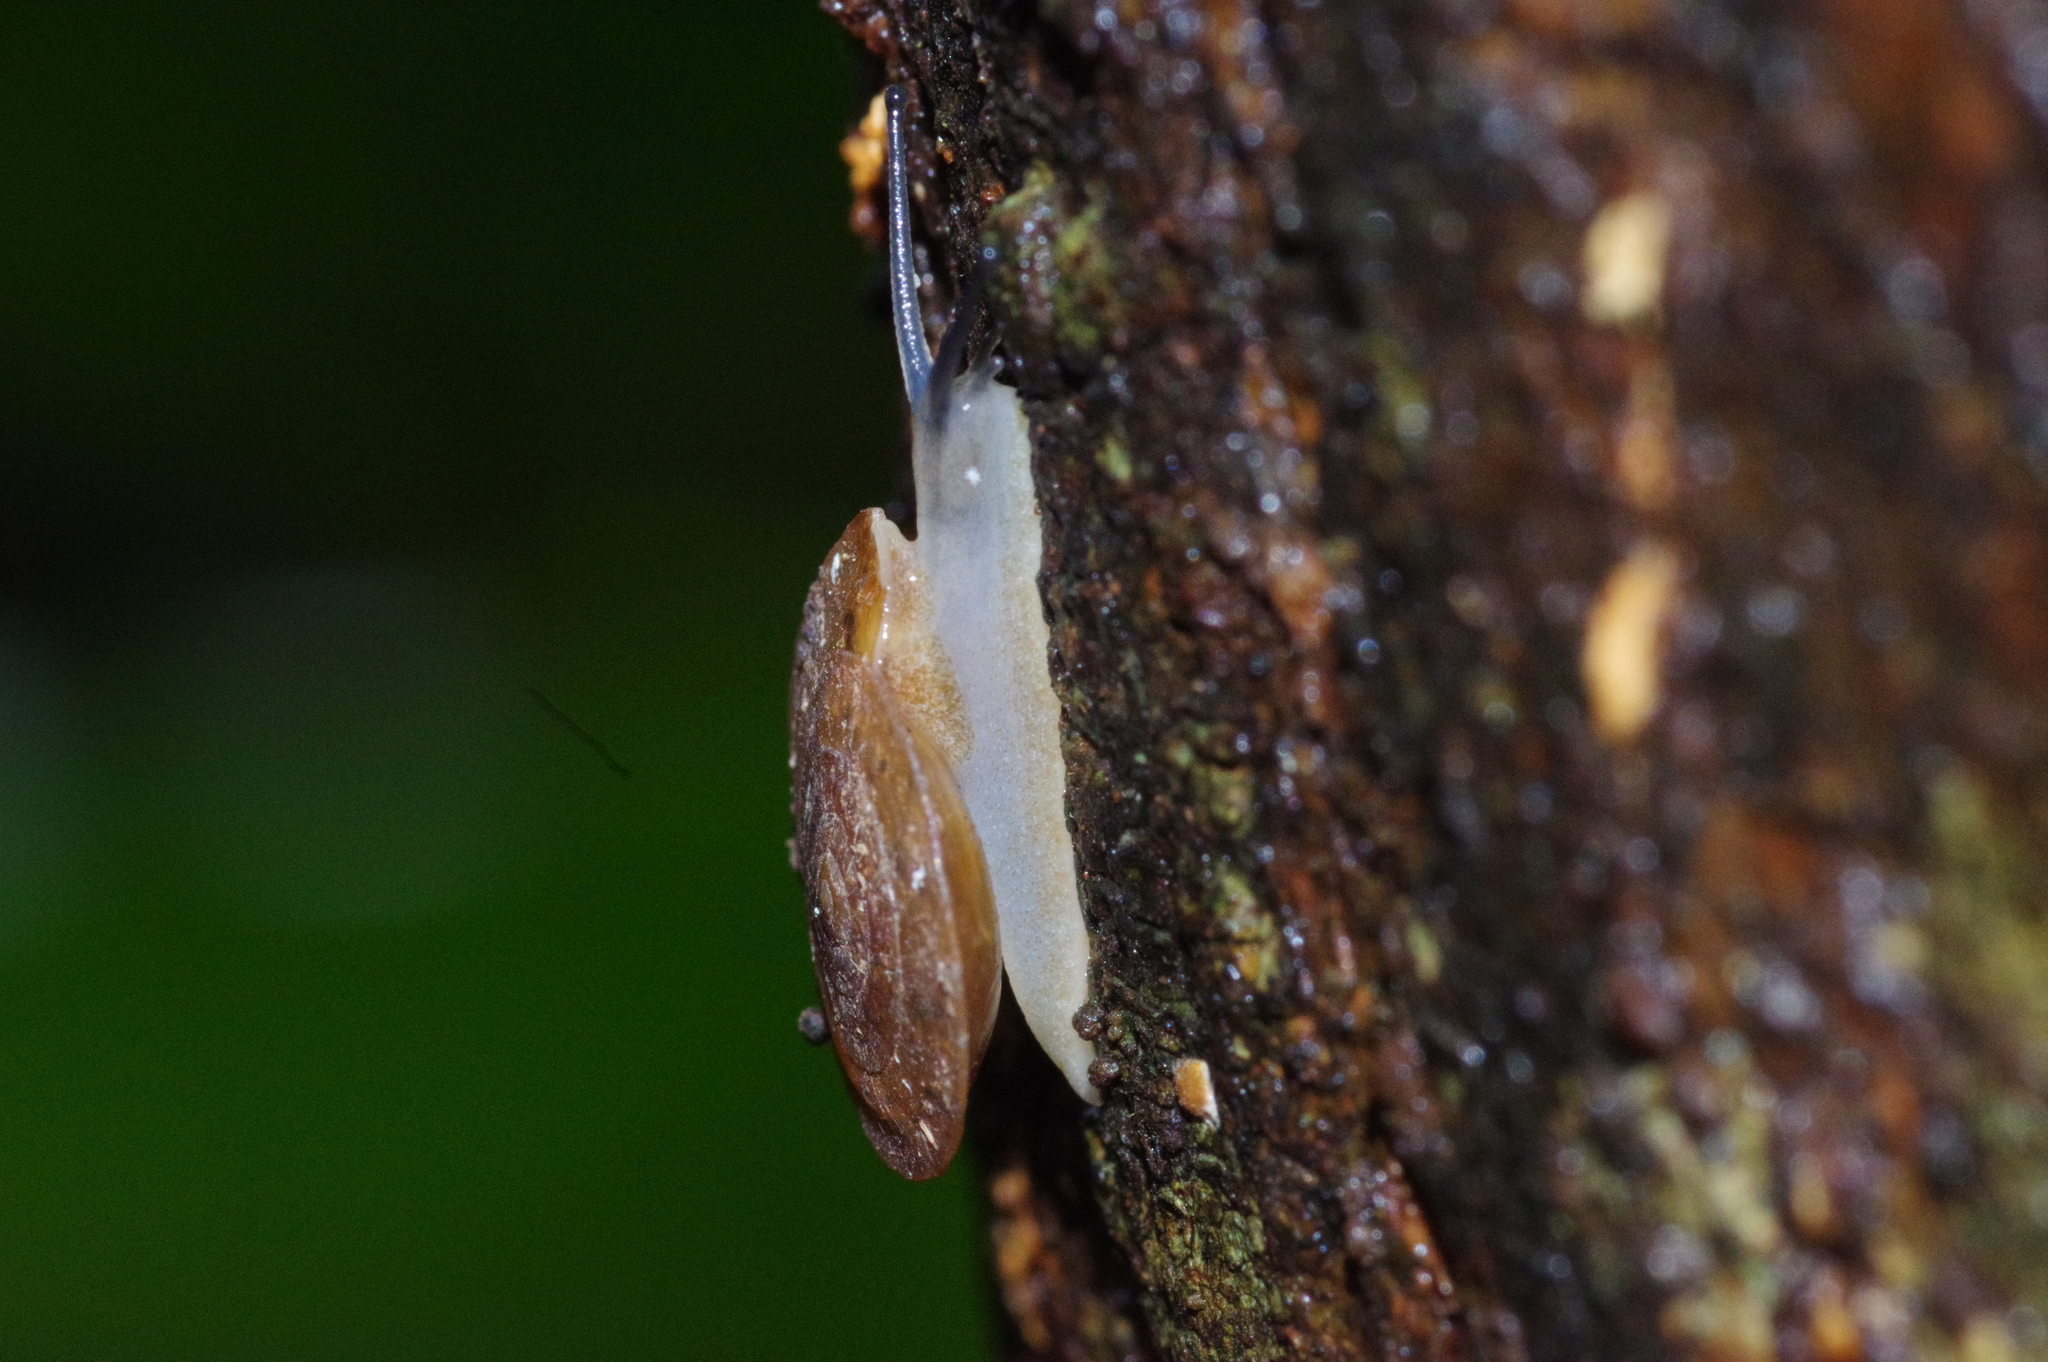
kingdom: Animalia
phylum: Mollusca
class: Gastropoda
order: Stylommatophora
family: Trochomorphidae
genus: Videnoida
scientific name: Videnoida horiomphala
